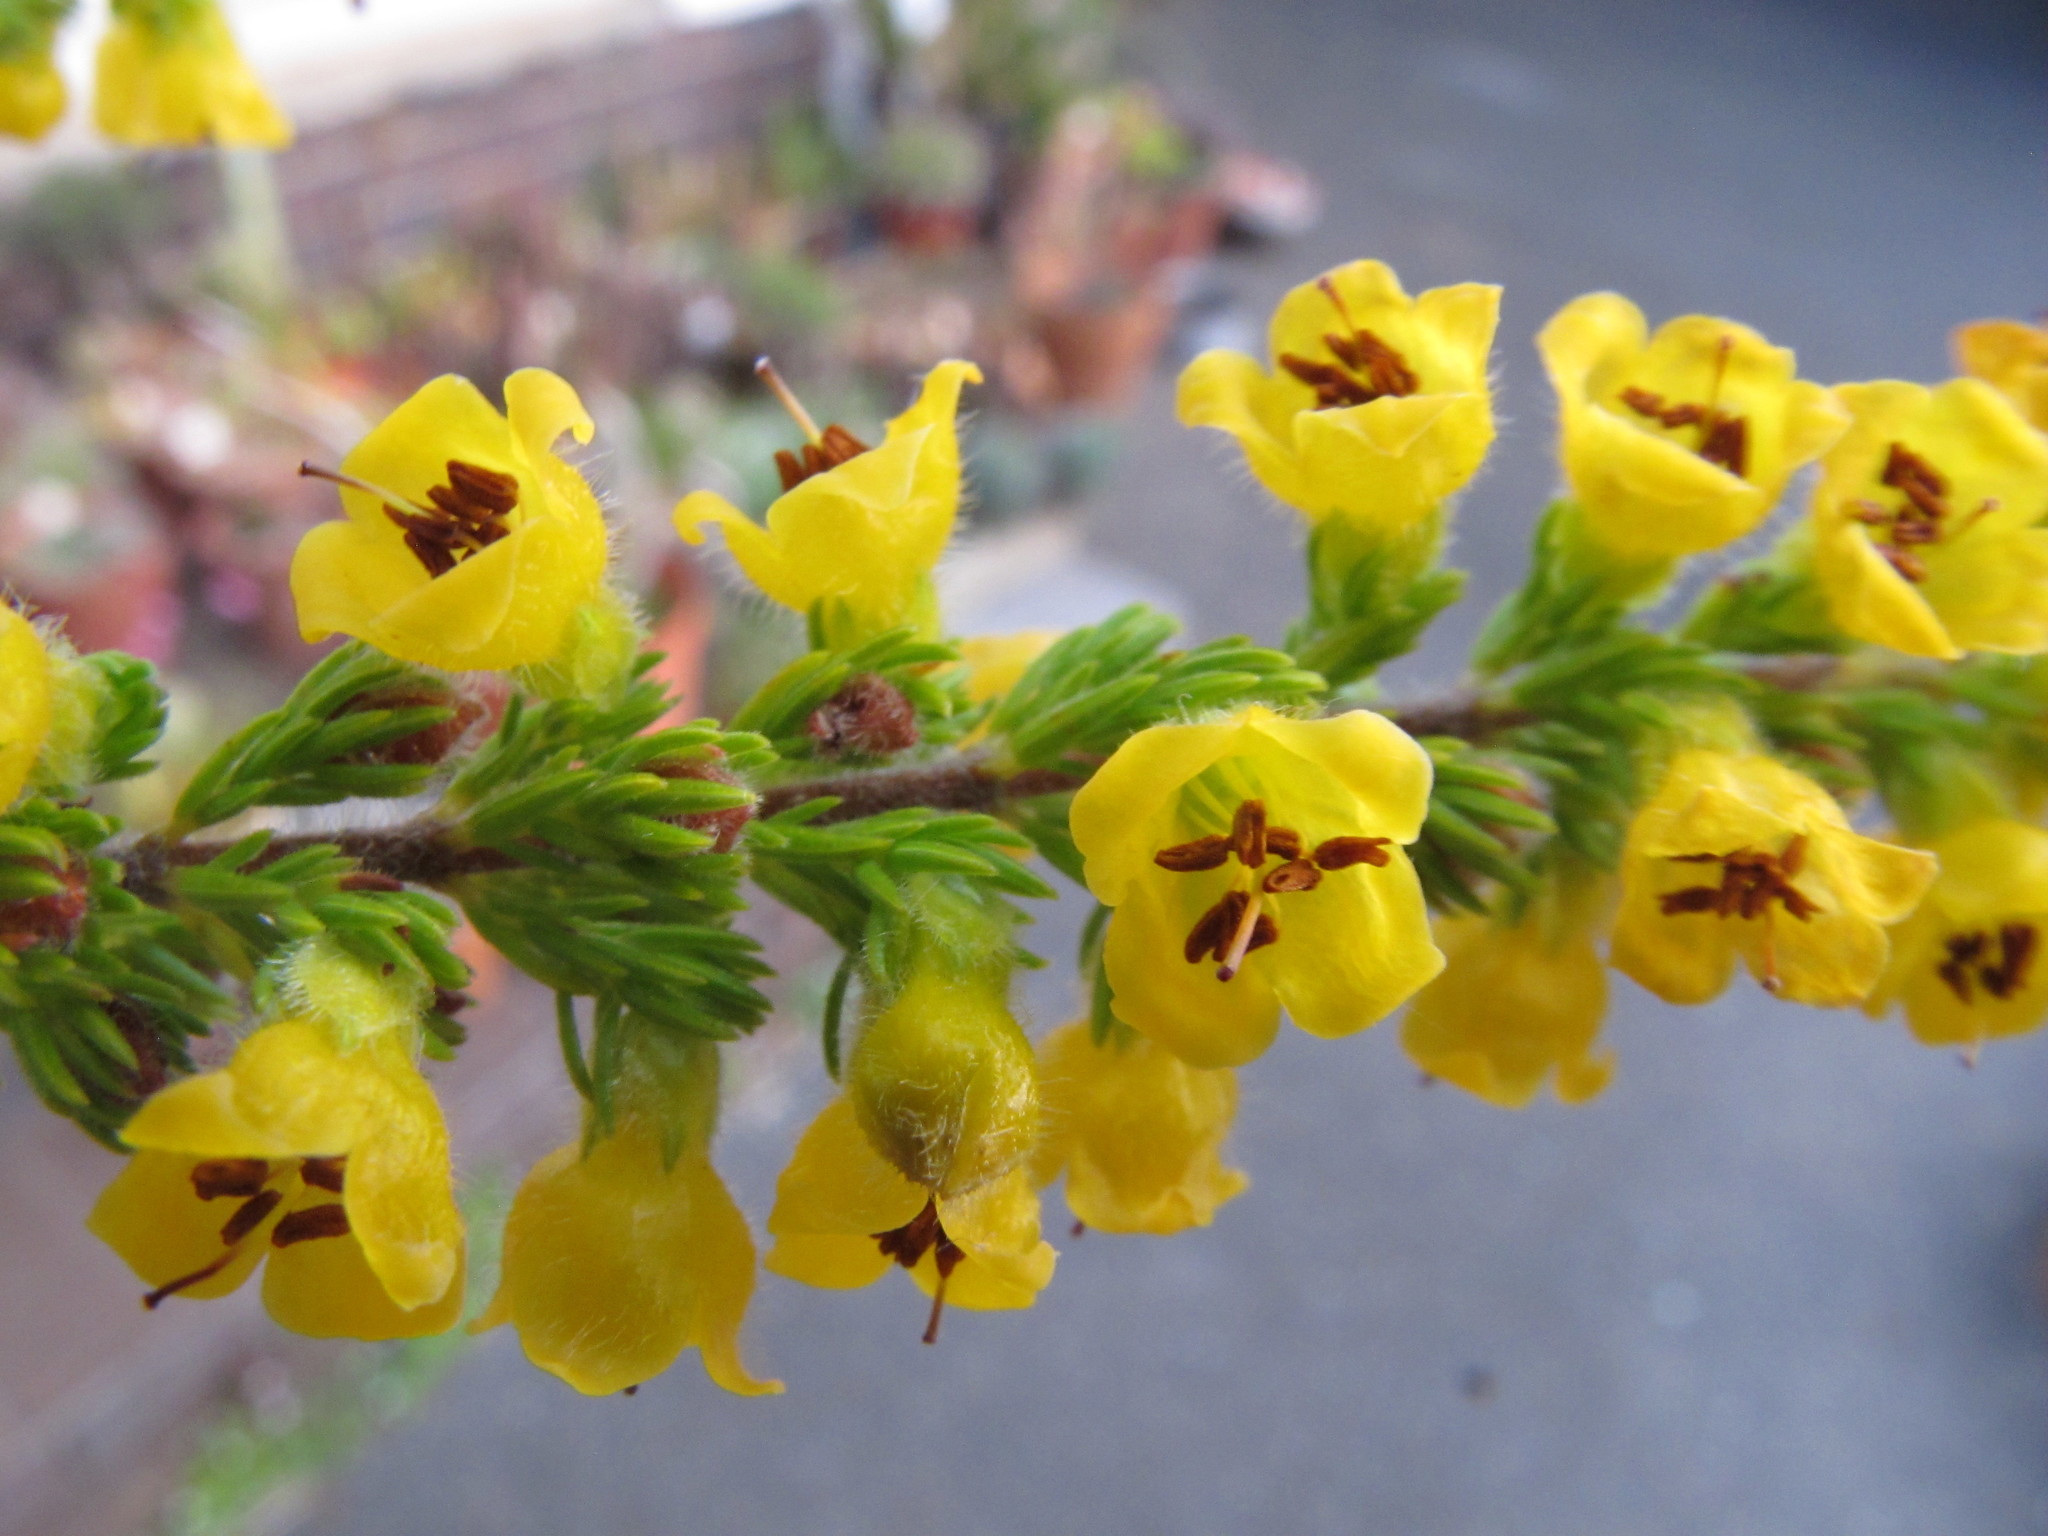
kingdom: Plantae
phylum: Tracheophyta
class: Magnoliopsida
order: Ericales
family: Ericaceae
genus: Erica
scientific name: Erica chrysocodon
